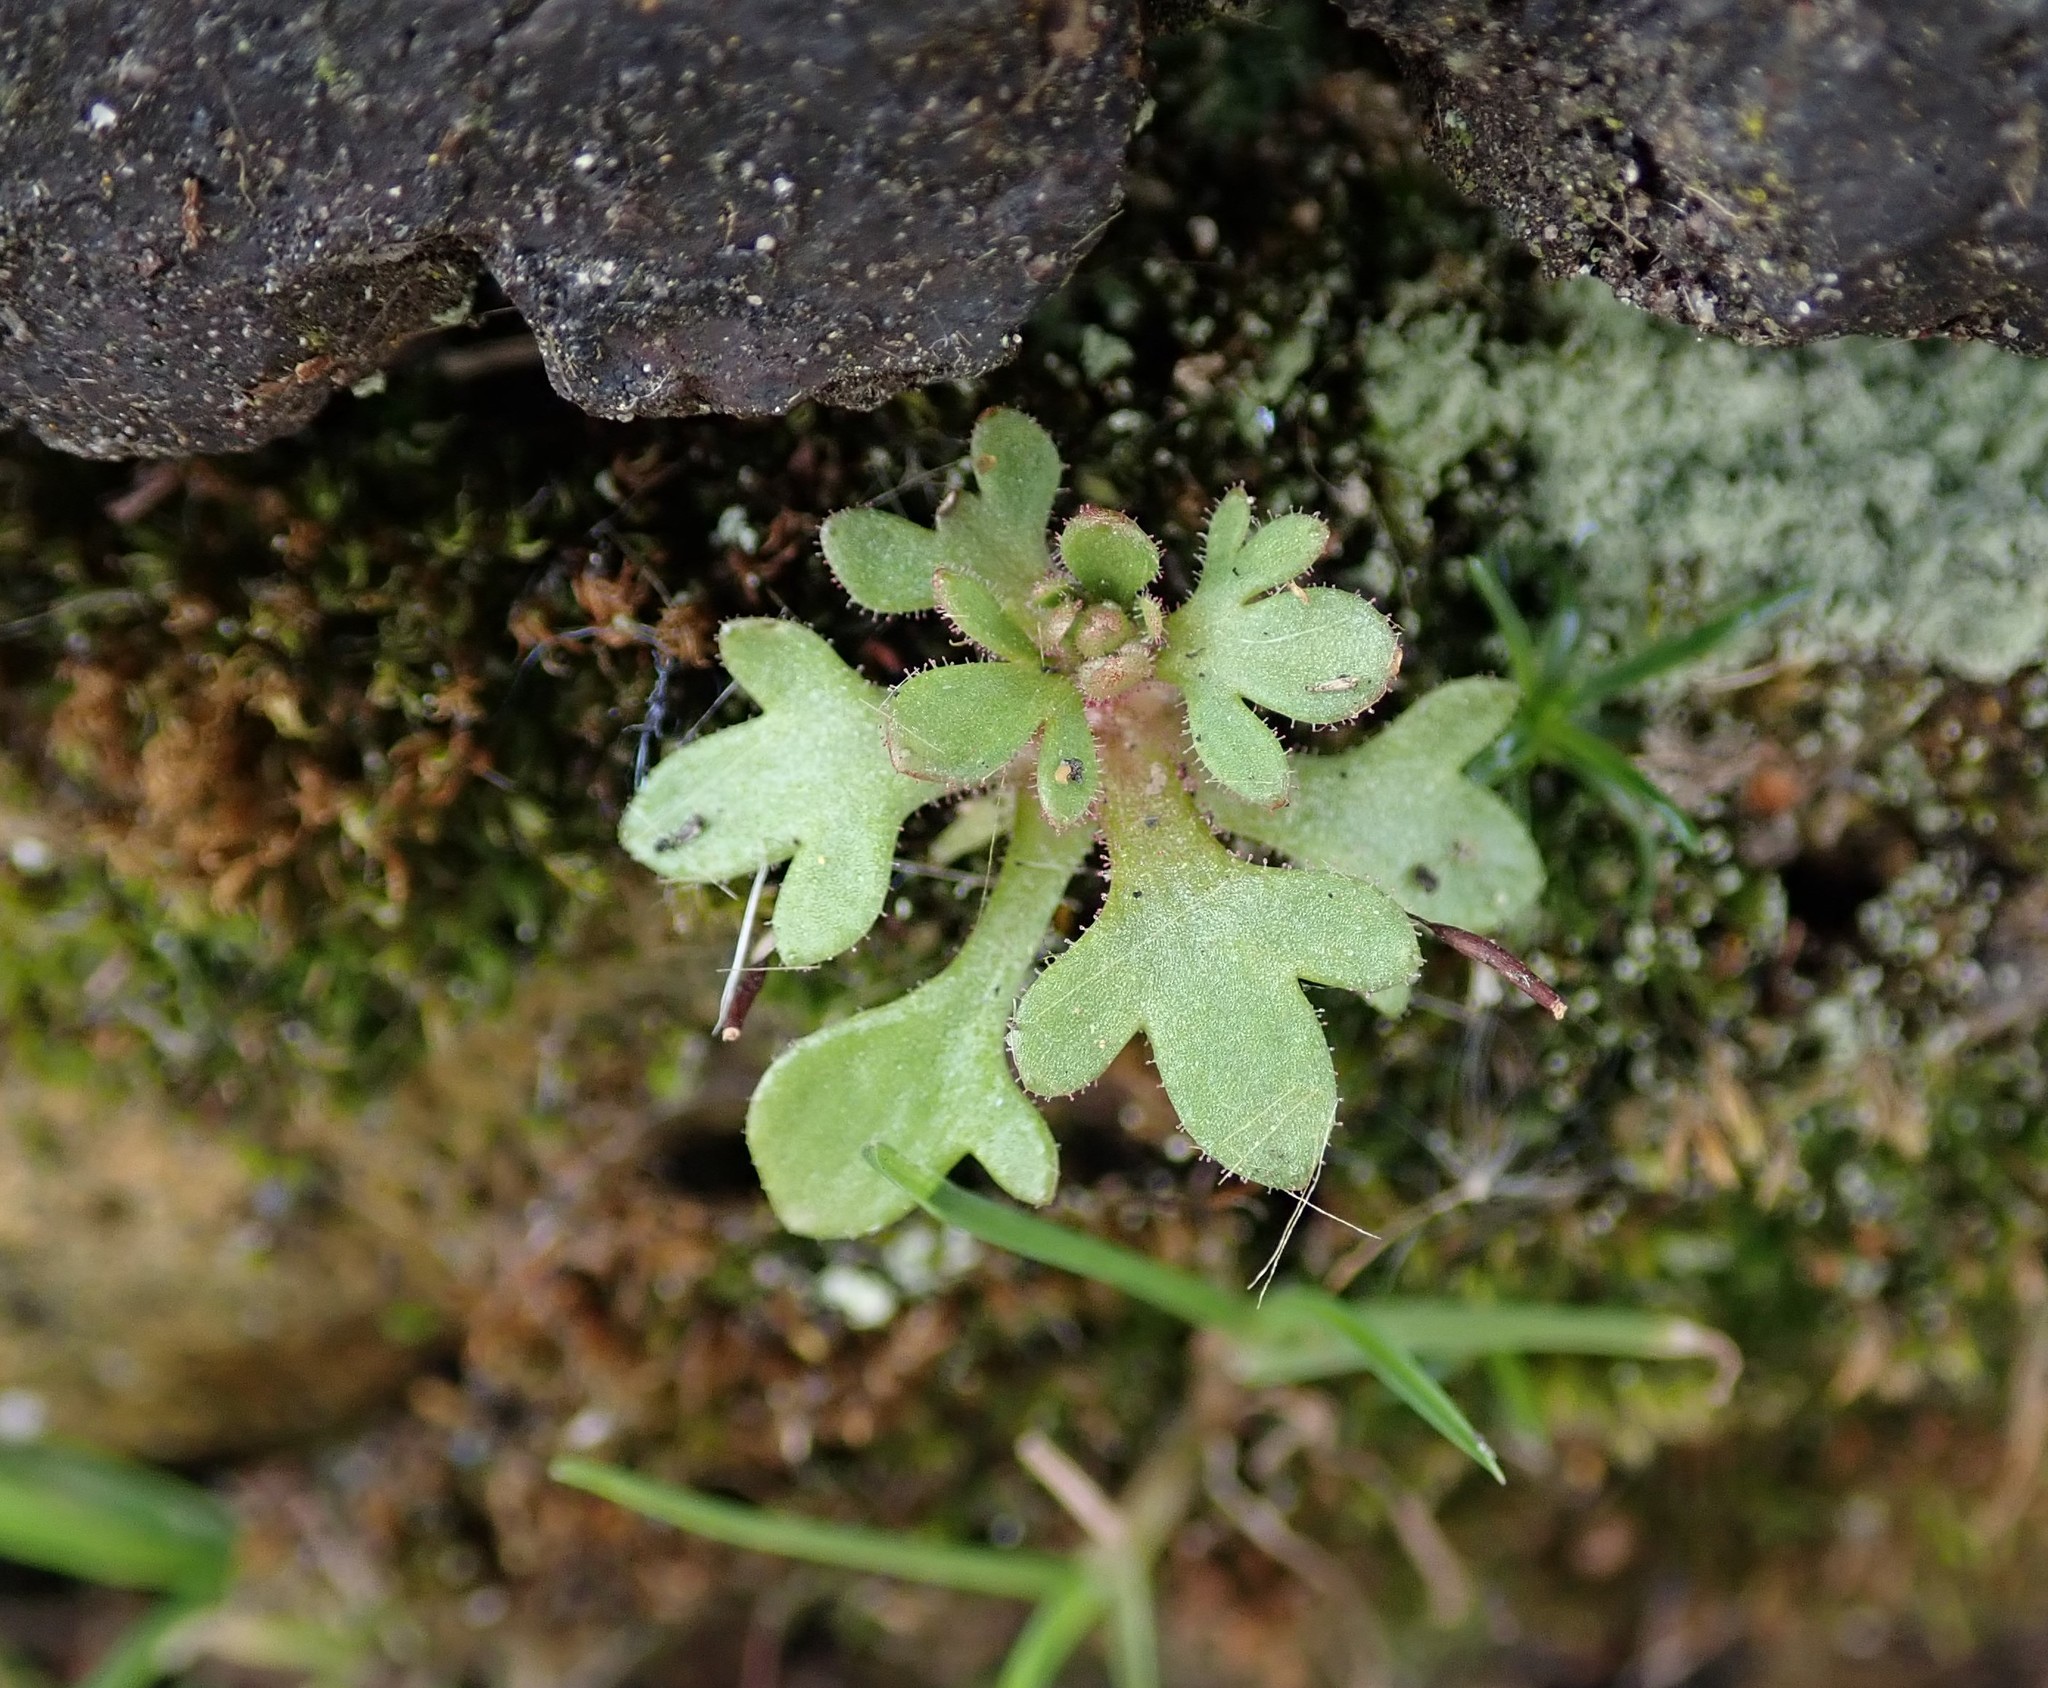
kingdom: Plantae
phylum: Tracheophyta
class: Magnoliopsida
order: Saxifragales
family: Saxifragaceae
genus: Saxifraga
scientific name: Saxifraga tridactylites
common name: Rue-leaved saxifrage
